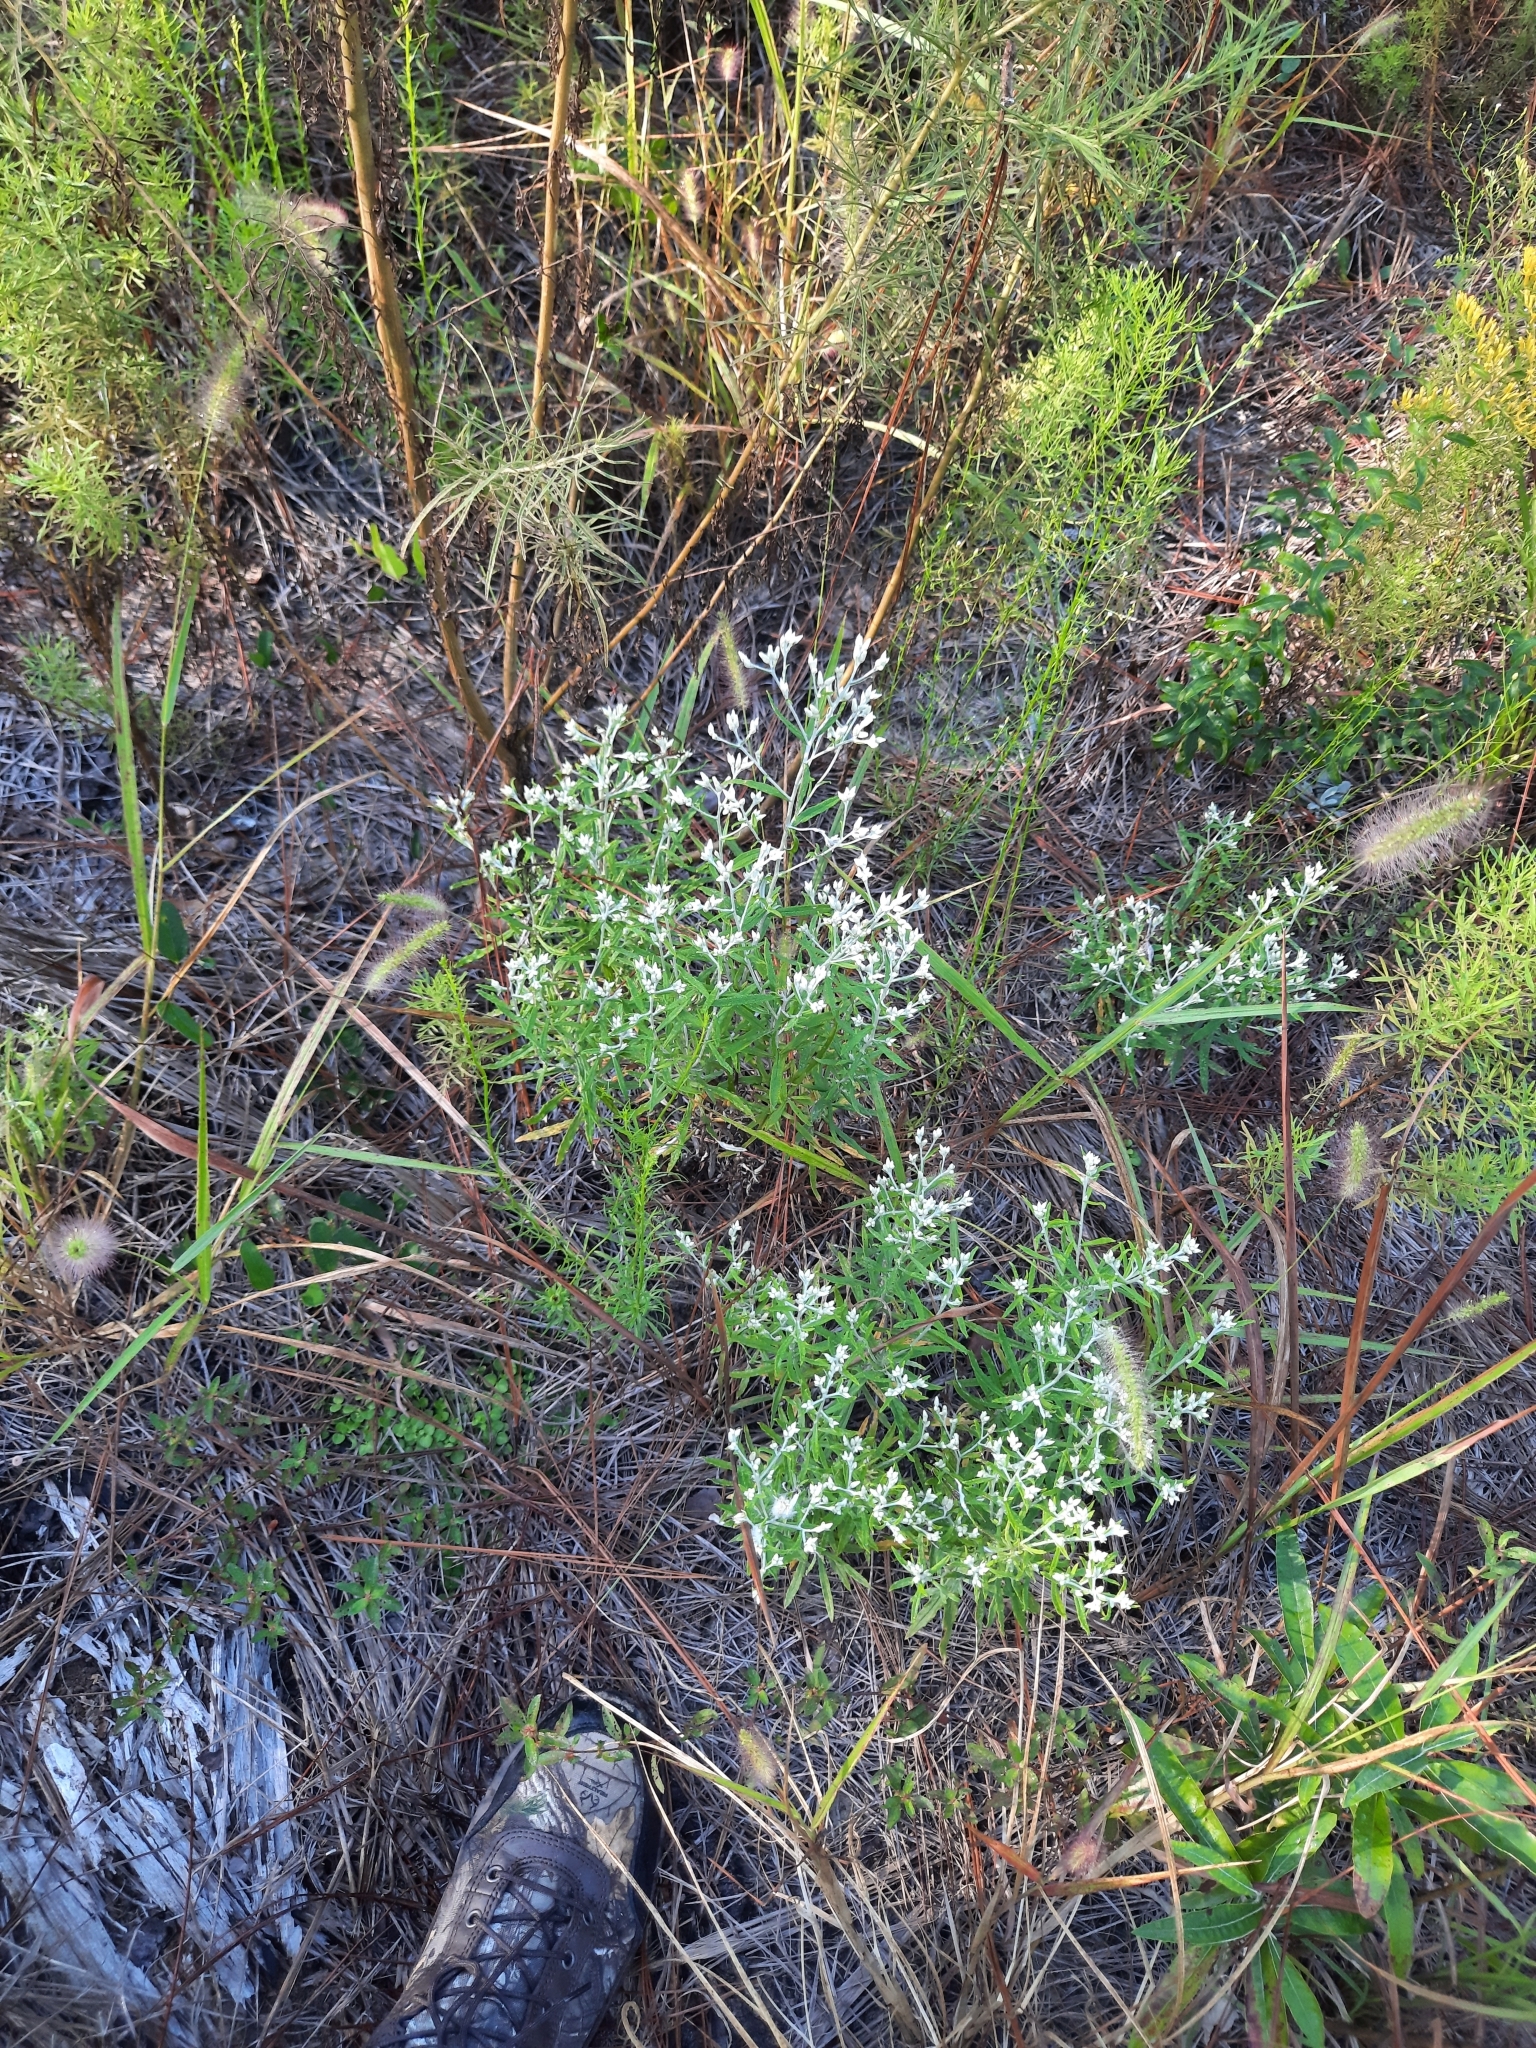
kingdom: Plantae
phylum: Tracheophyta
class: Magnoliopsida
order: Asterales
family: Asteraceae
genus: Pseudognaphalium
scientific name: Pseudognaphalium obtusifolium
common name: Eastern rabbit-tobacco
